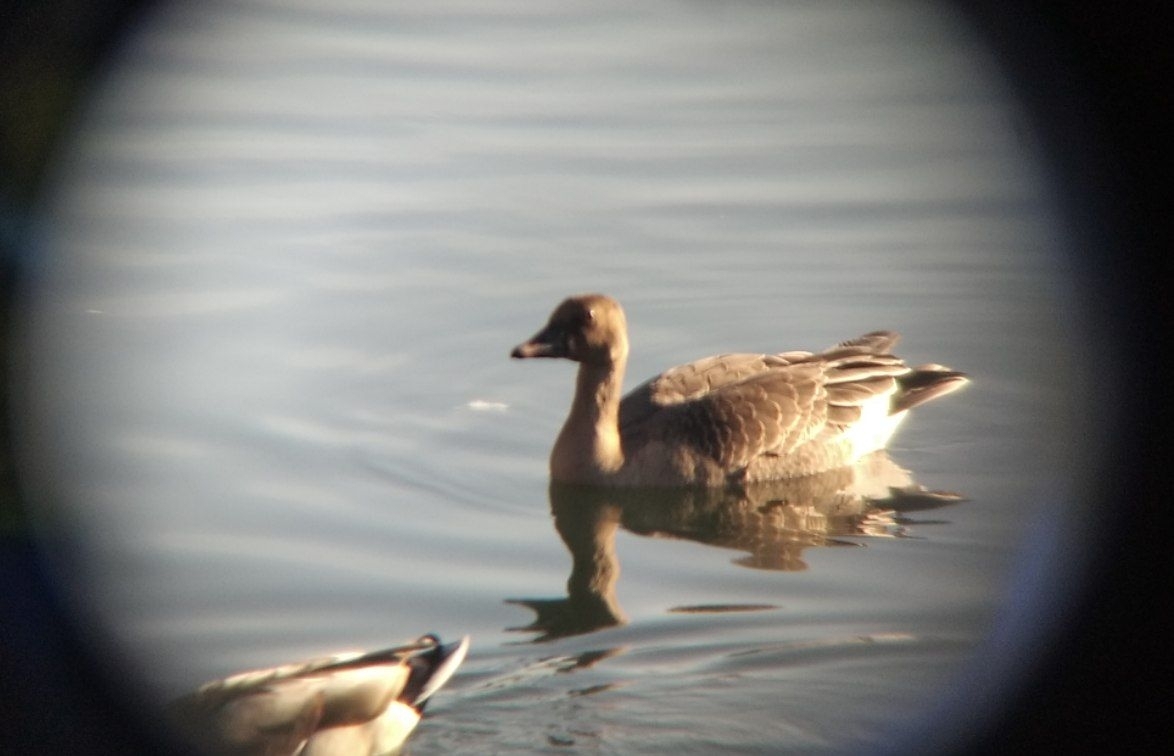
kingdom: Animalia
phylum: Chordata
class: Aves
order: Anseriformes
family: Anatidae
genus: Anser
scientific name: Anser serrirostris
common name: Tundra bean goose
